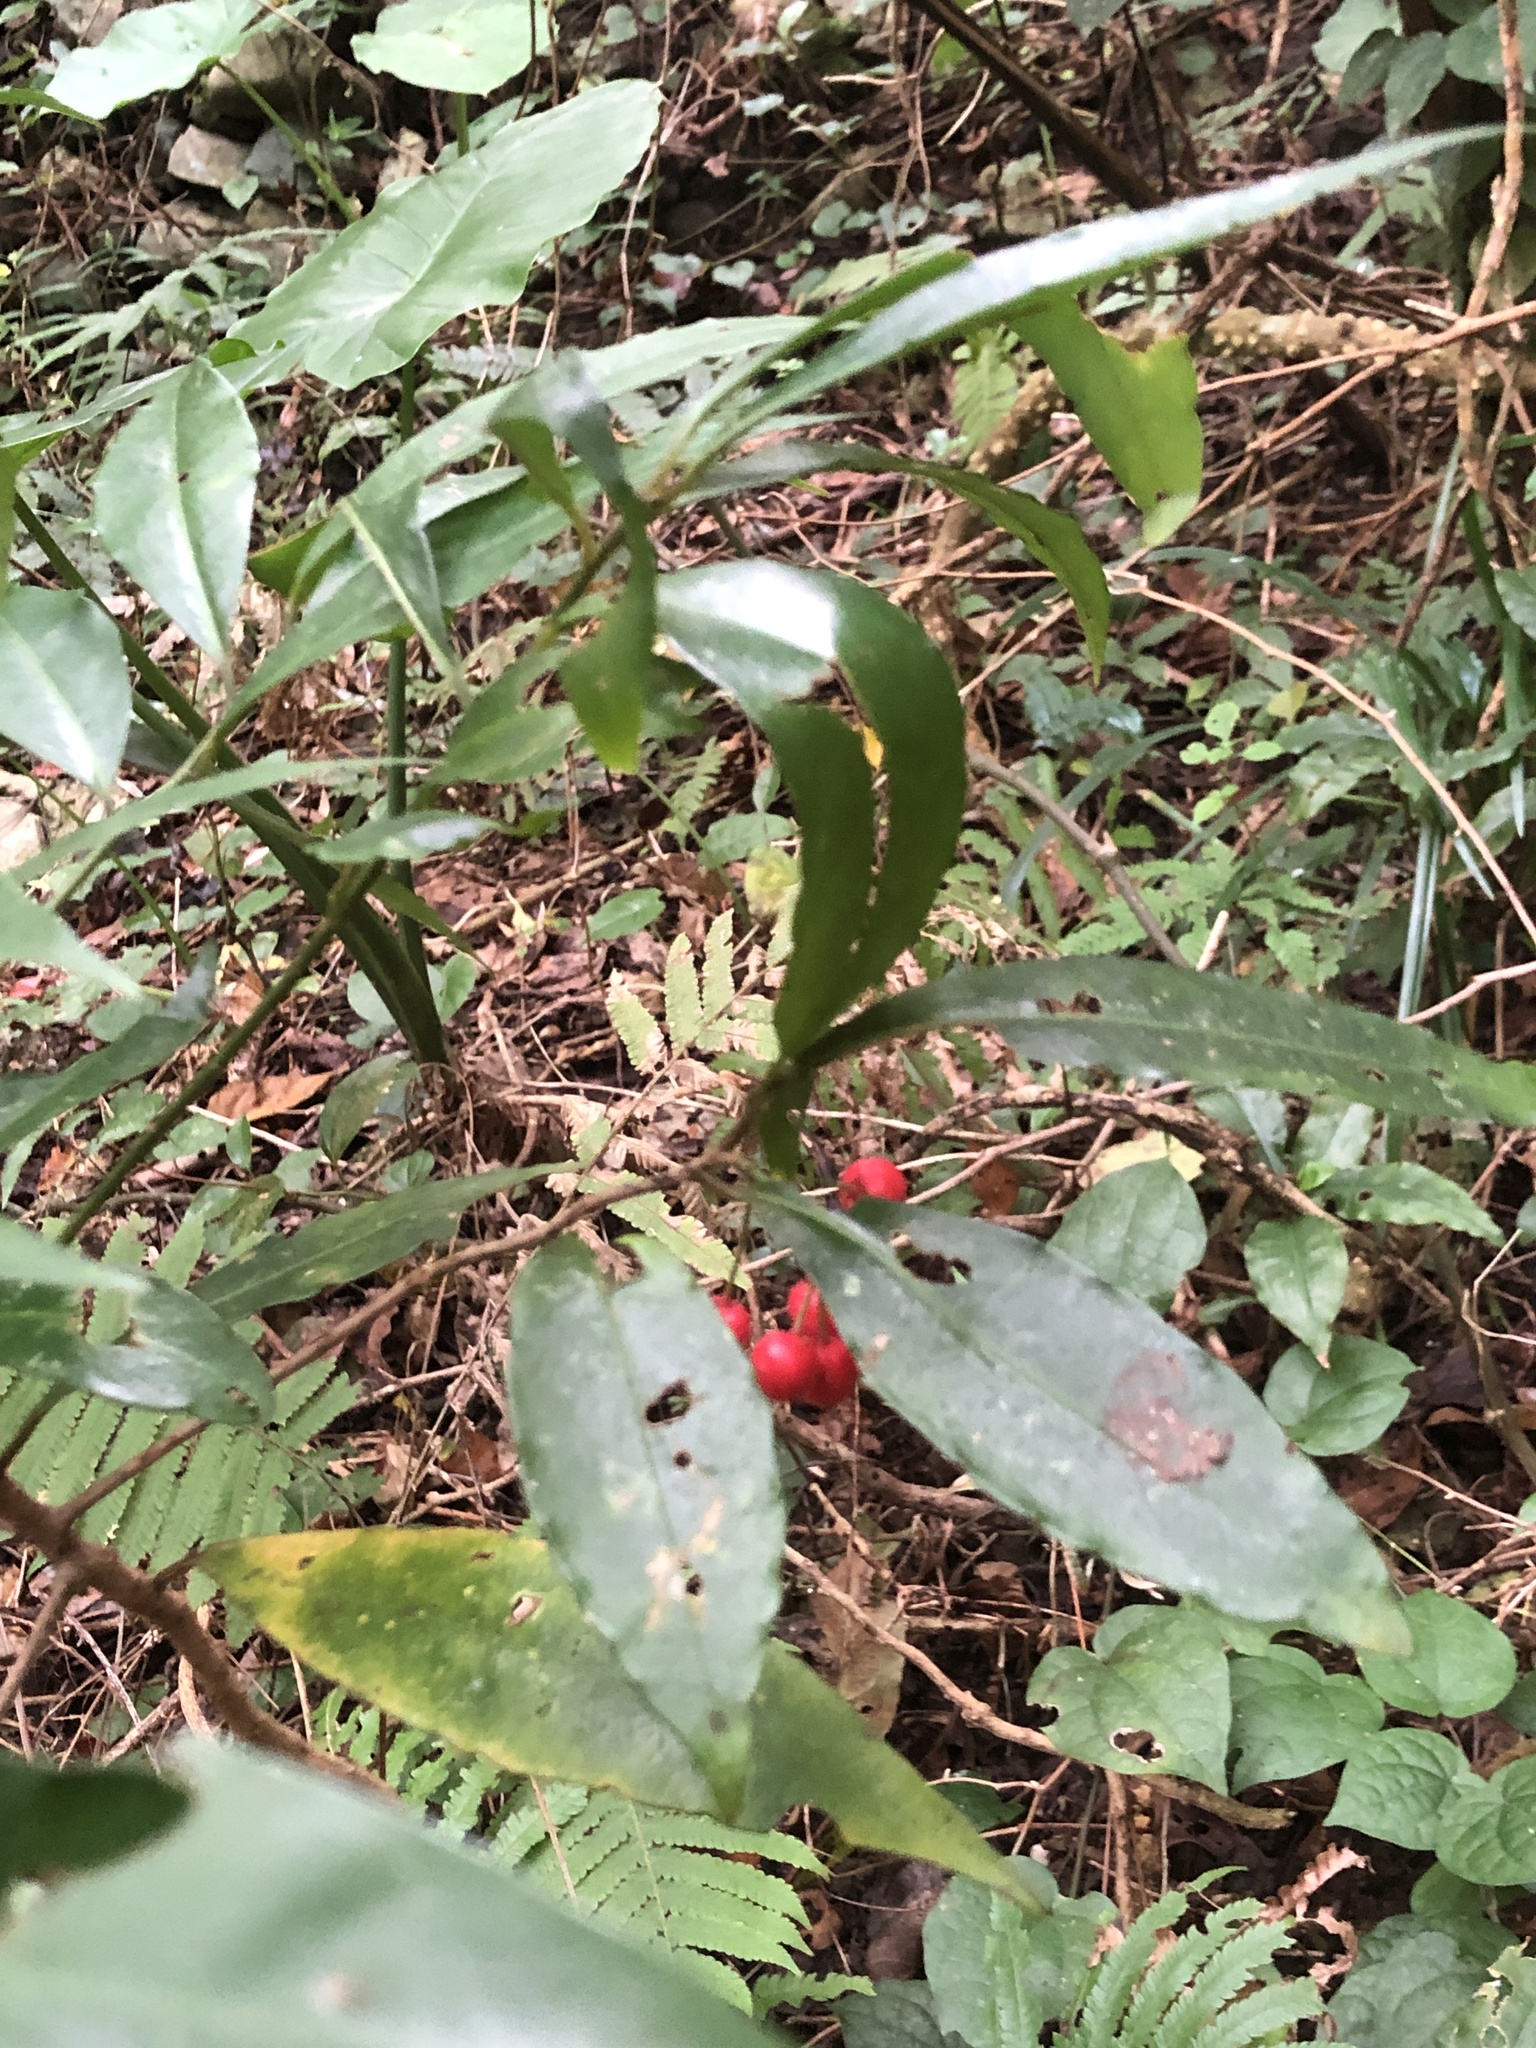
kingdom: Plantae
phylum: Tracheophyta
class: Magnoliopsida
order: Ericales
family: Primulaceae
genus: Ardisia
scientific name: Ardisia crenata
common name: Hen's eyes
